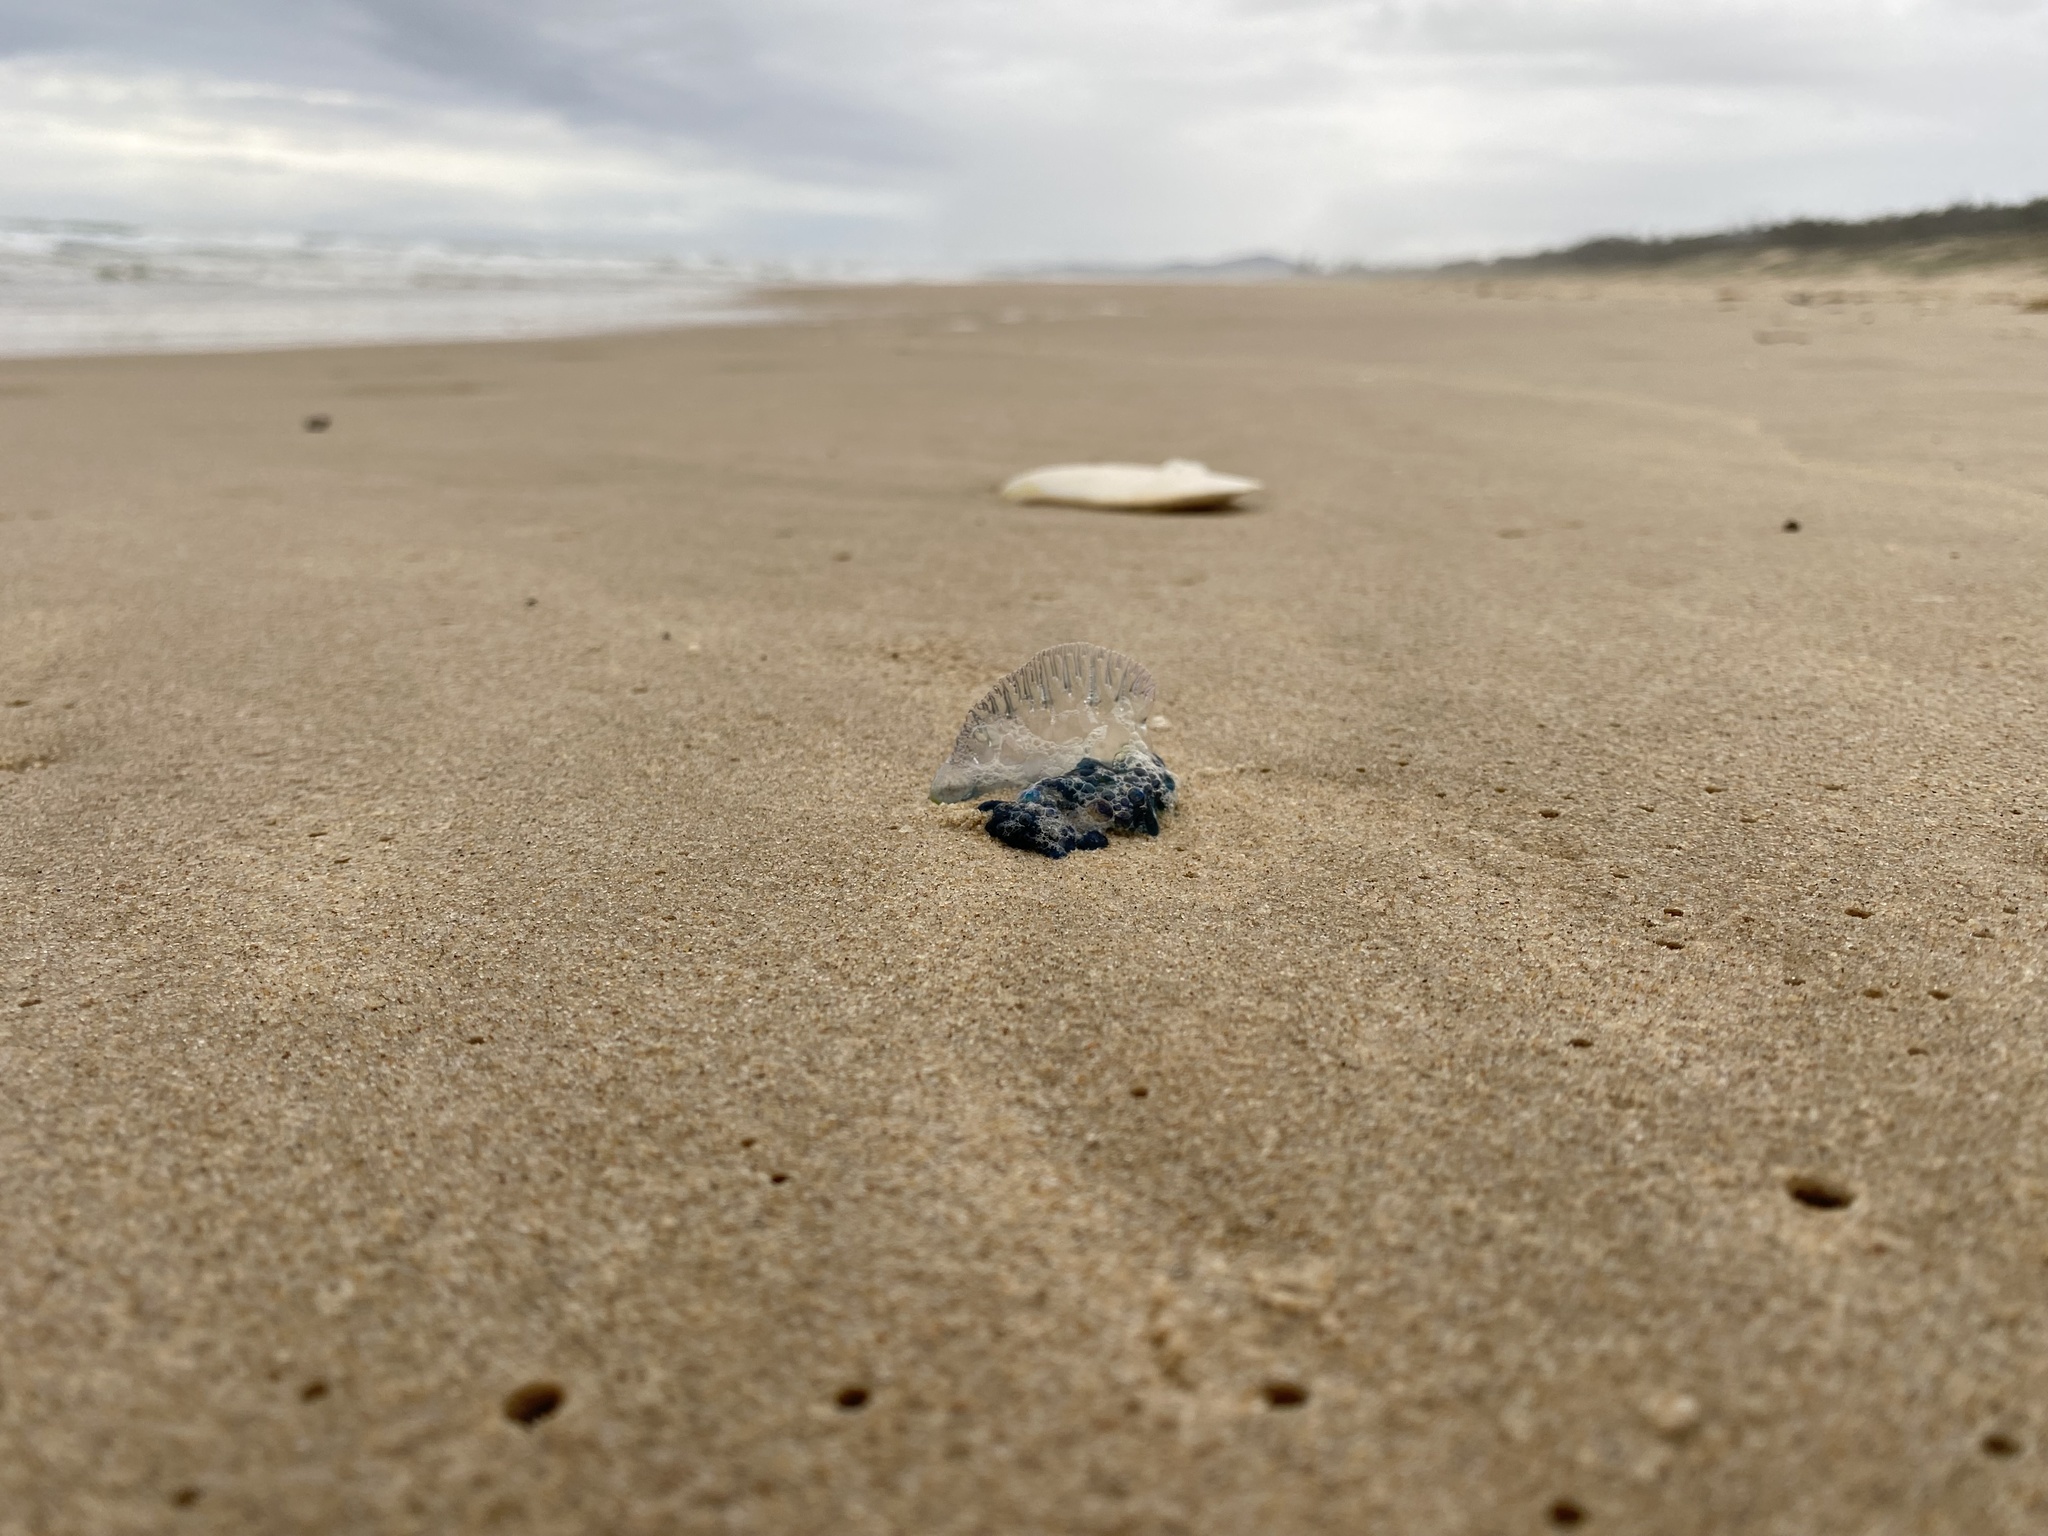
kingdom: Animalia
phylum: Cnidaria
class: Hydrozoa
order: Siphonophorae
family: Physaliidae
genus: Physalia
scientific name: Physalia physalis
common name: Portuguese man-of-war
